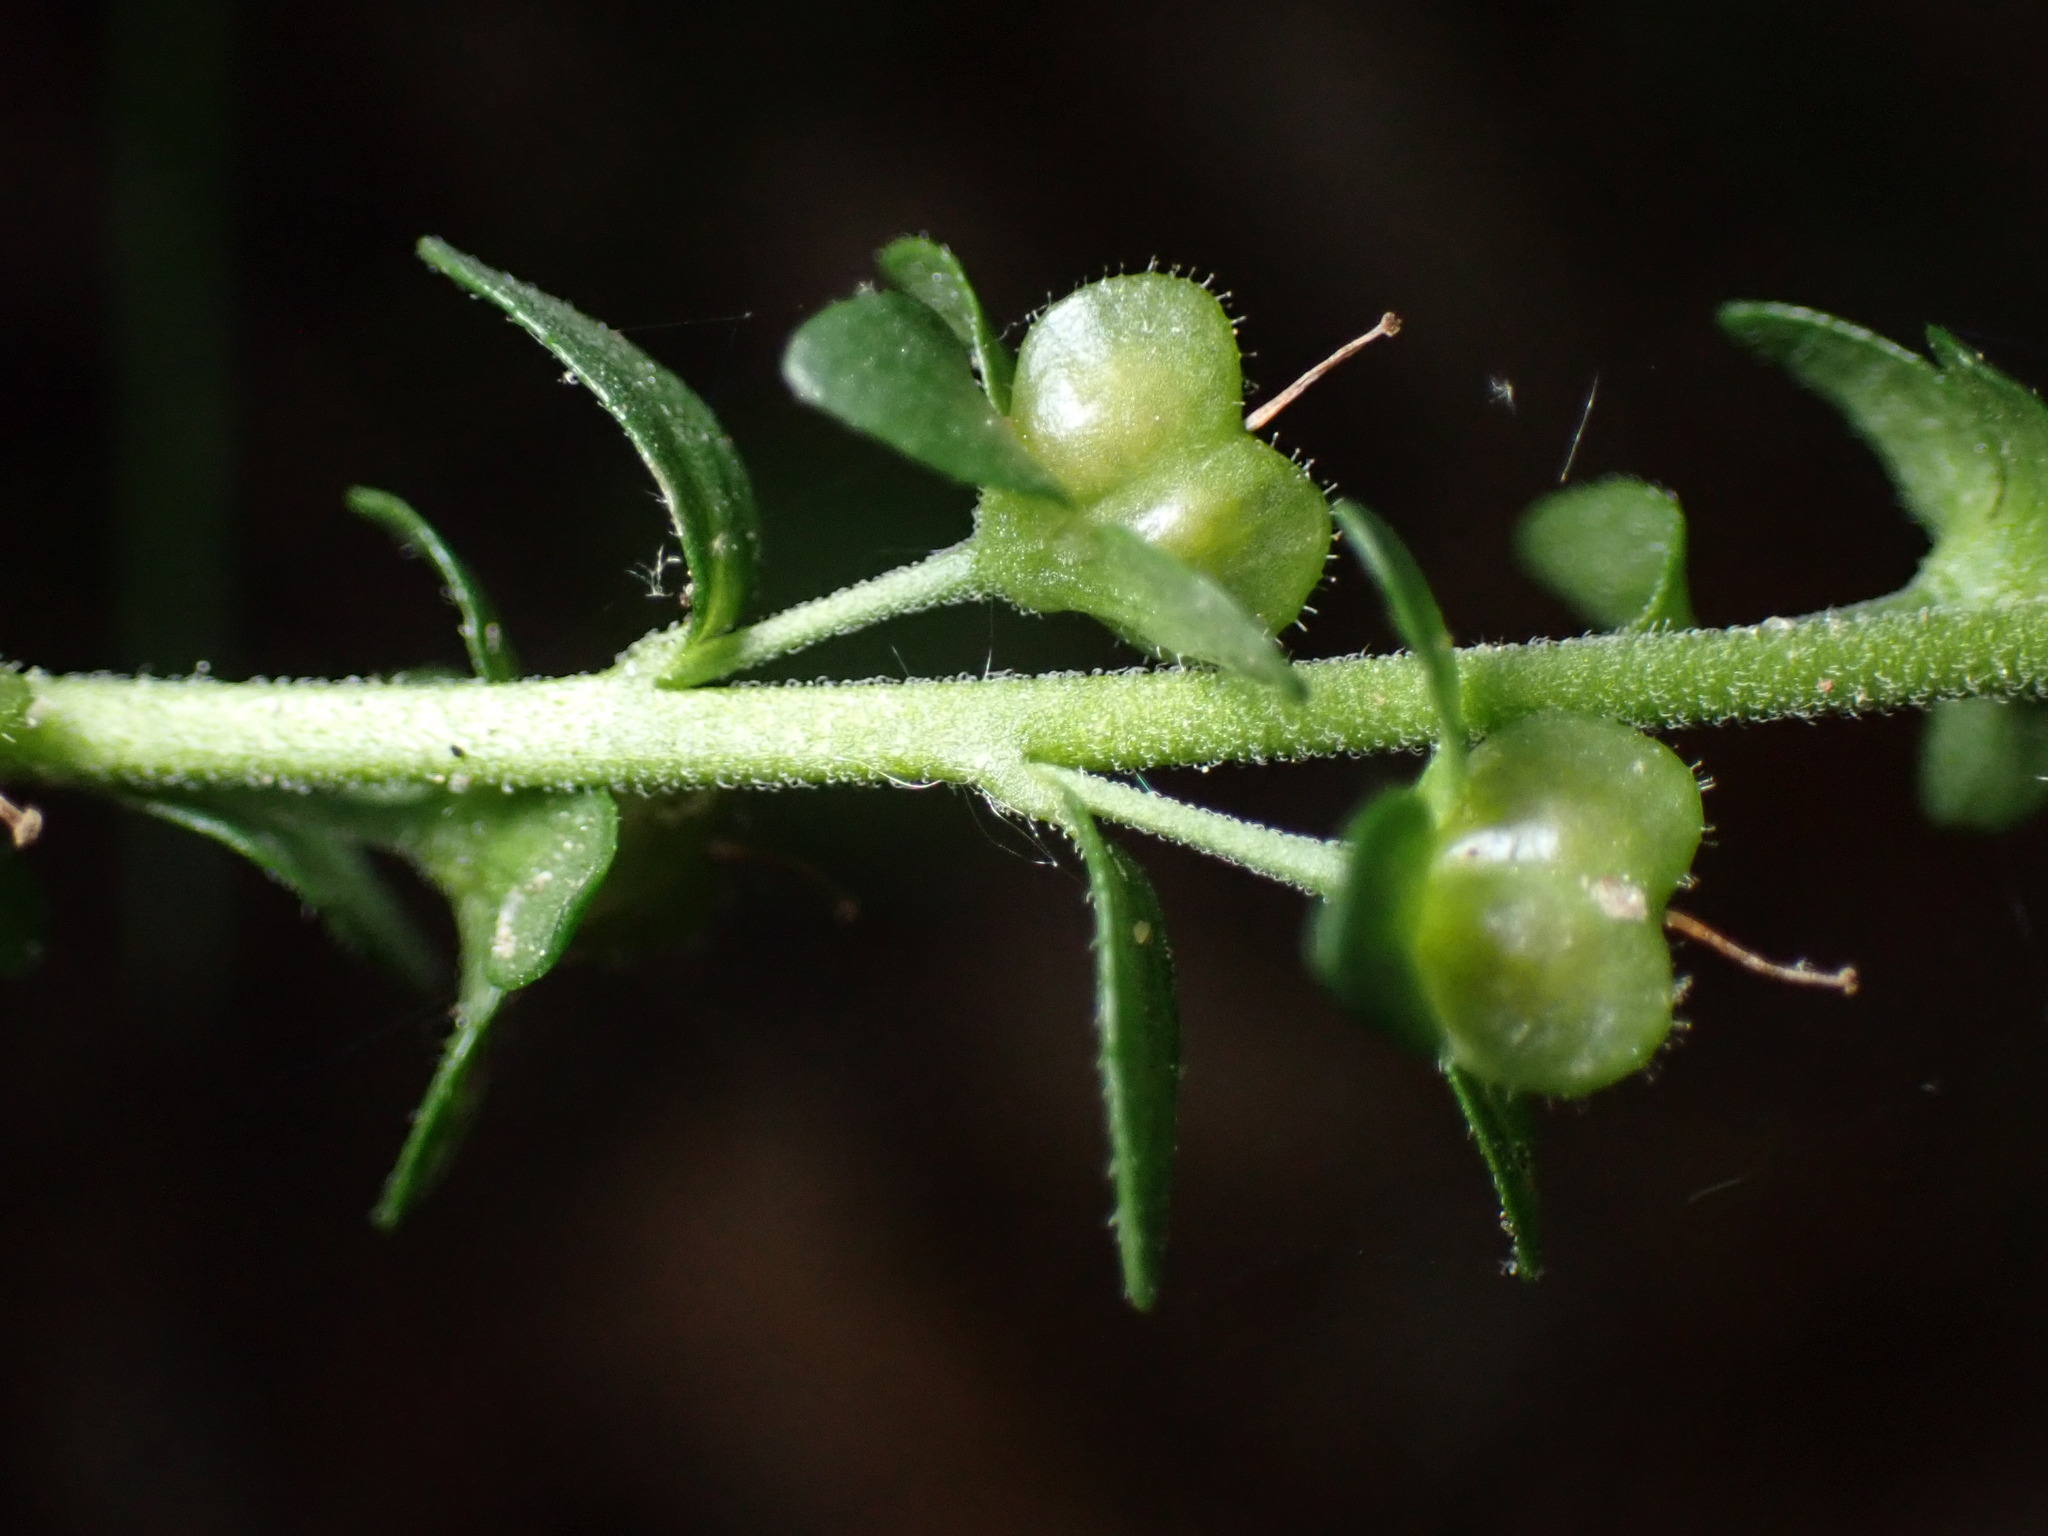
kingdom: Plantae
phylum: Tracheophyta
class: Magnoliopsida
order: Lamiales
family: Plantaginaceae
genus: Veronica
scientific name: Veronica serpyllifolia
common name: Thyme-leaved speedwell
